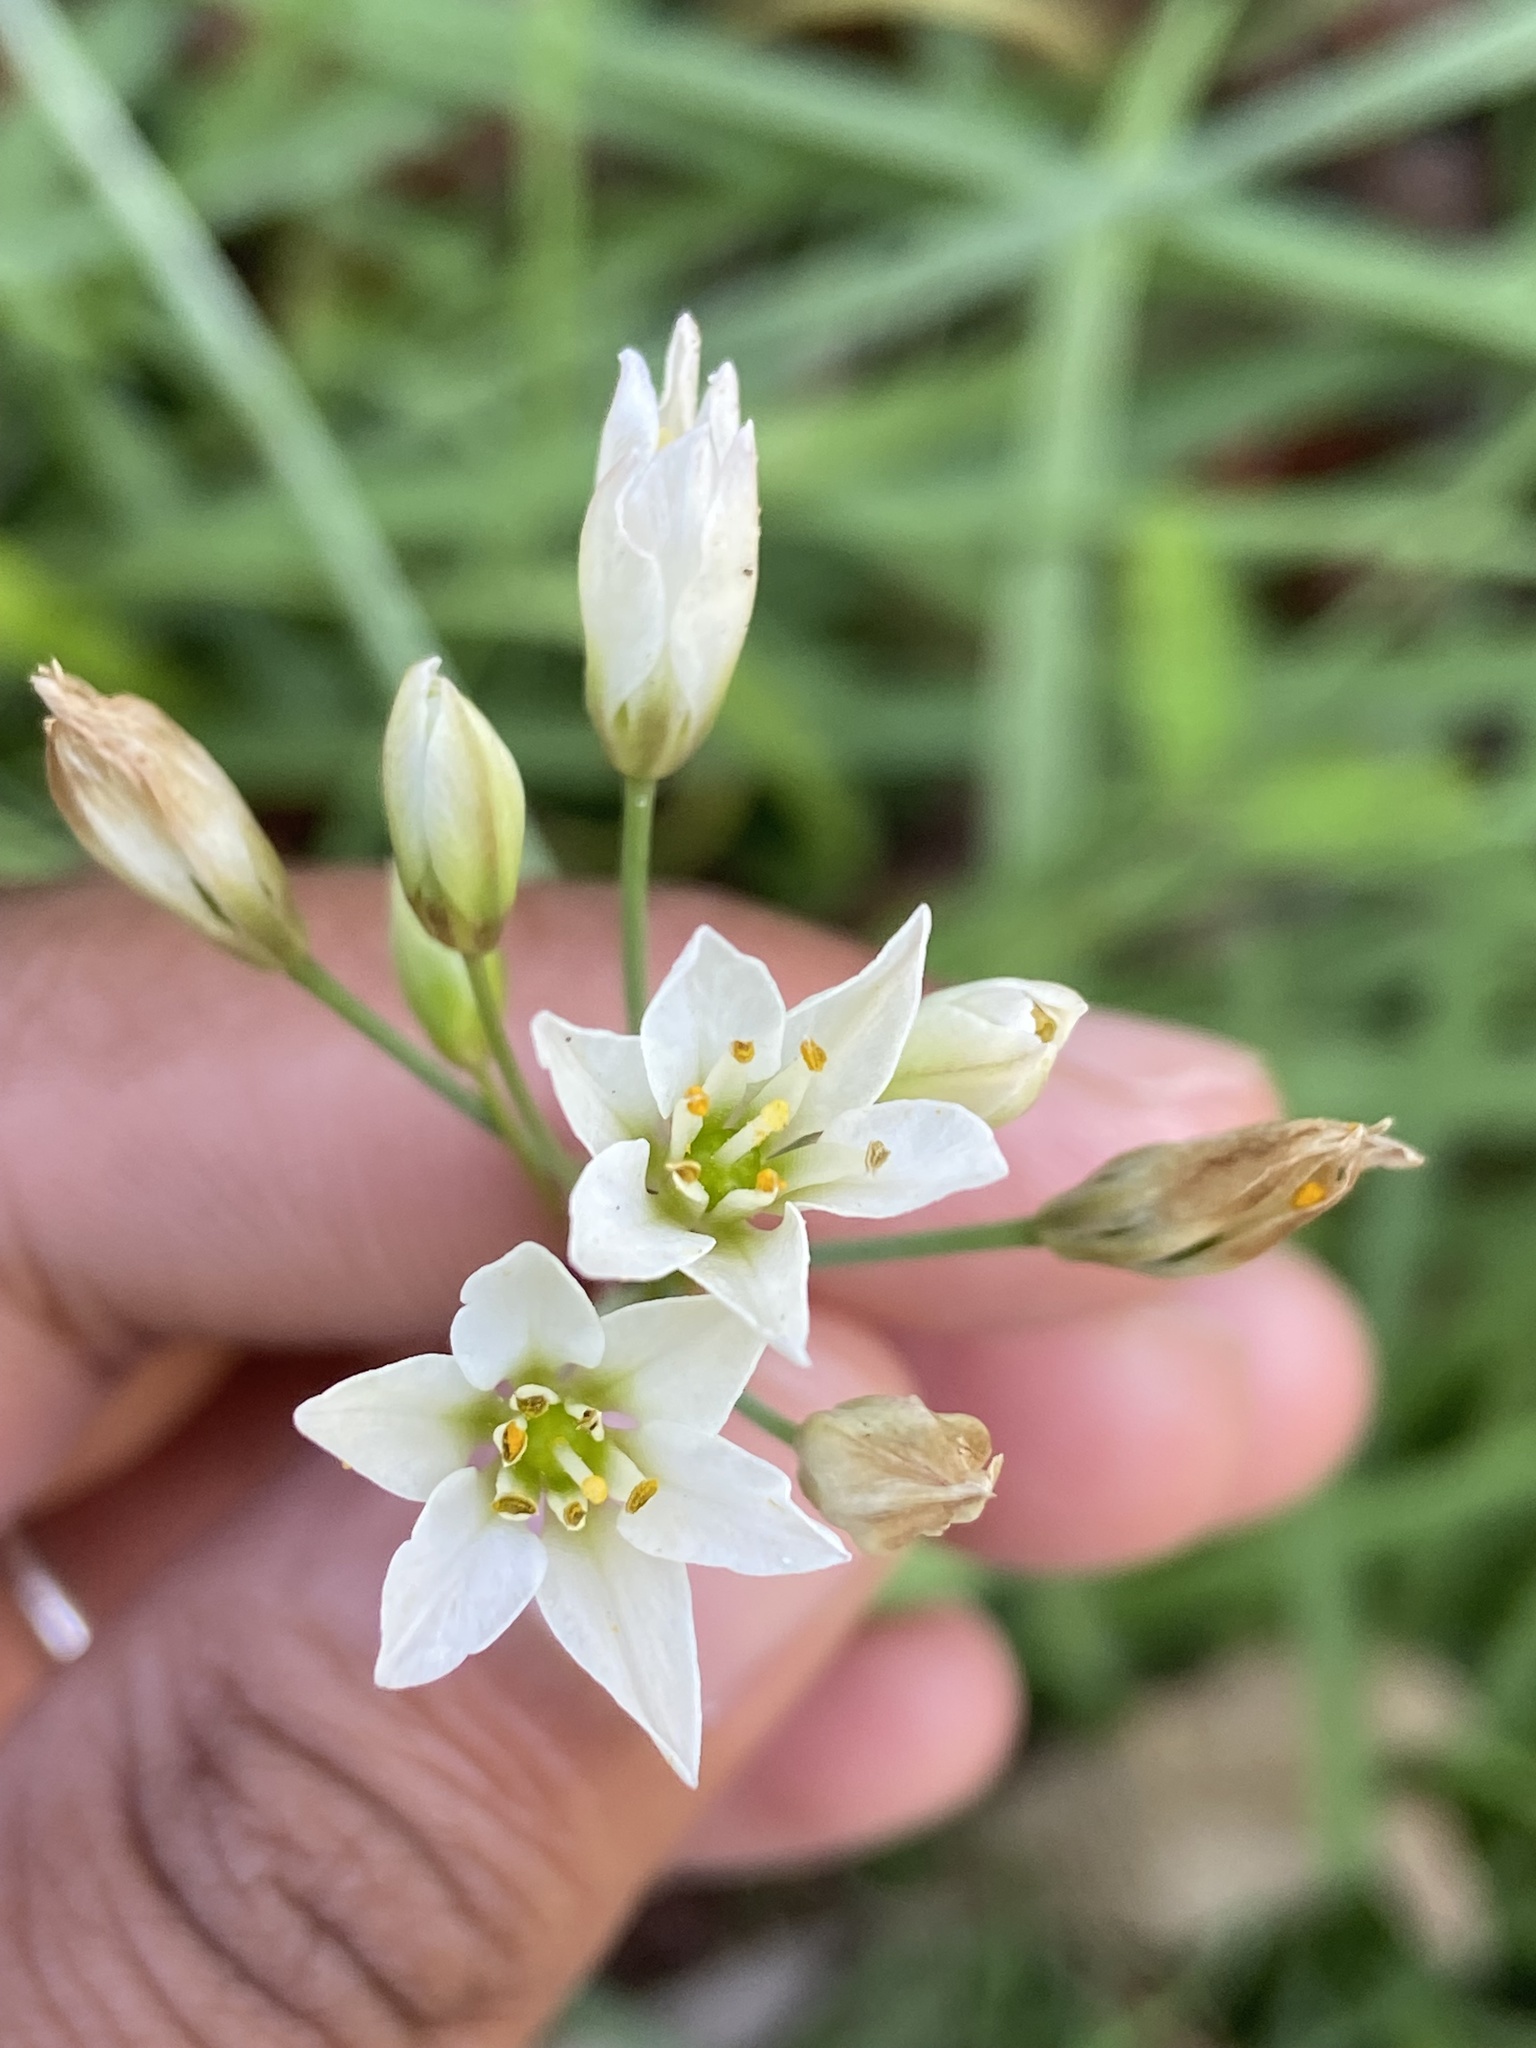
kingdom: Plantae
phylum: Tracheophyta
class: Liliopsida
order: Asparagales
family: Amaryllidaceae
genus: Nothoscordum
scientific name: Nothoscordum gracile
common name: Slender false garlic
